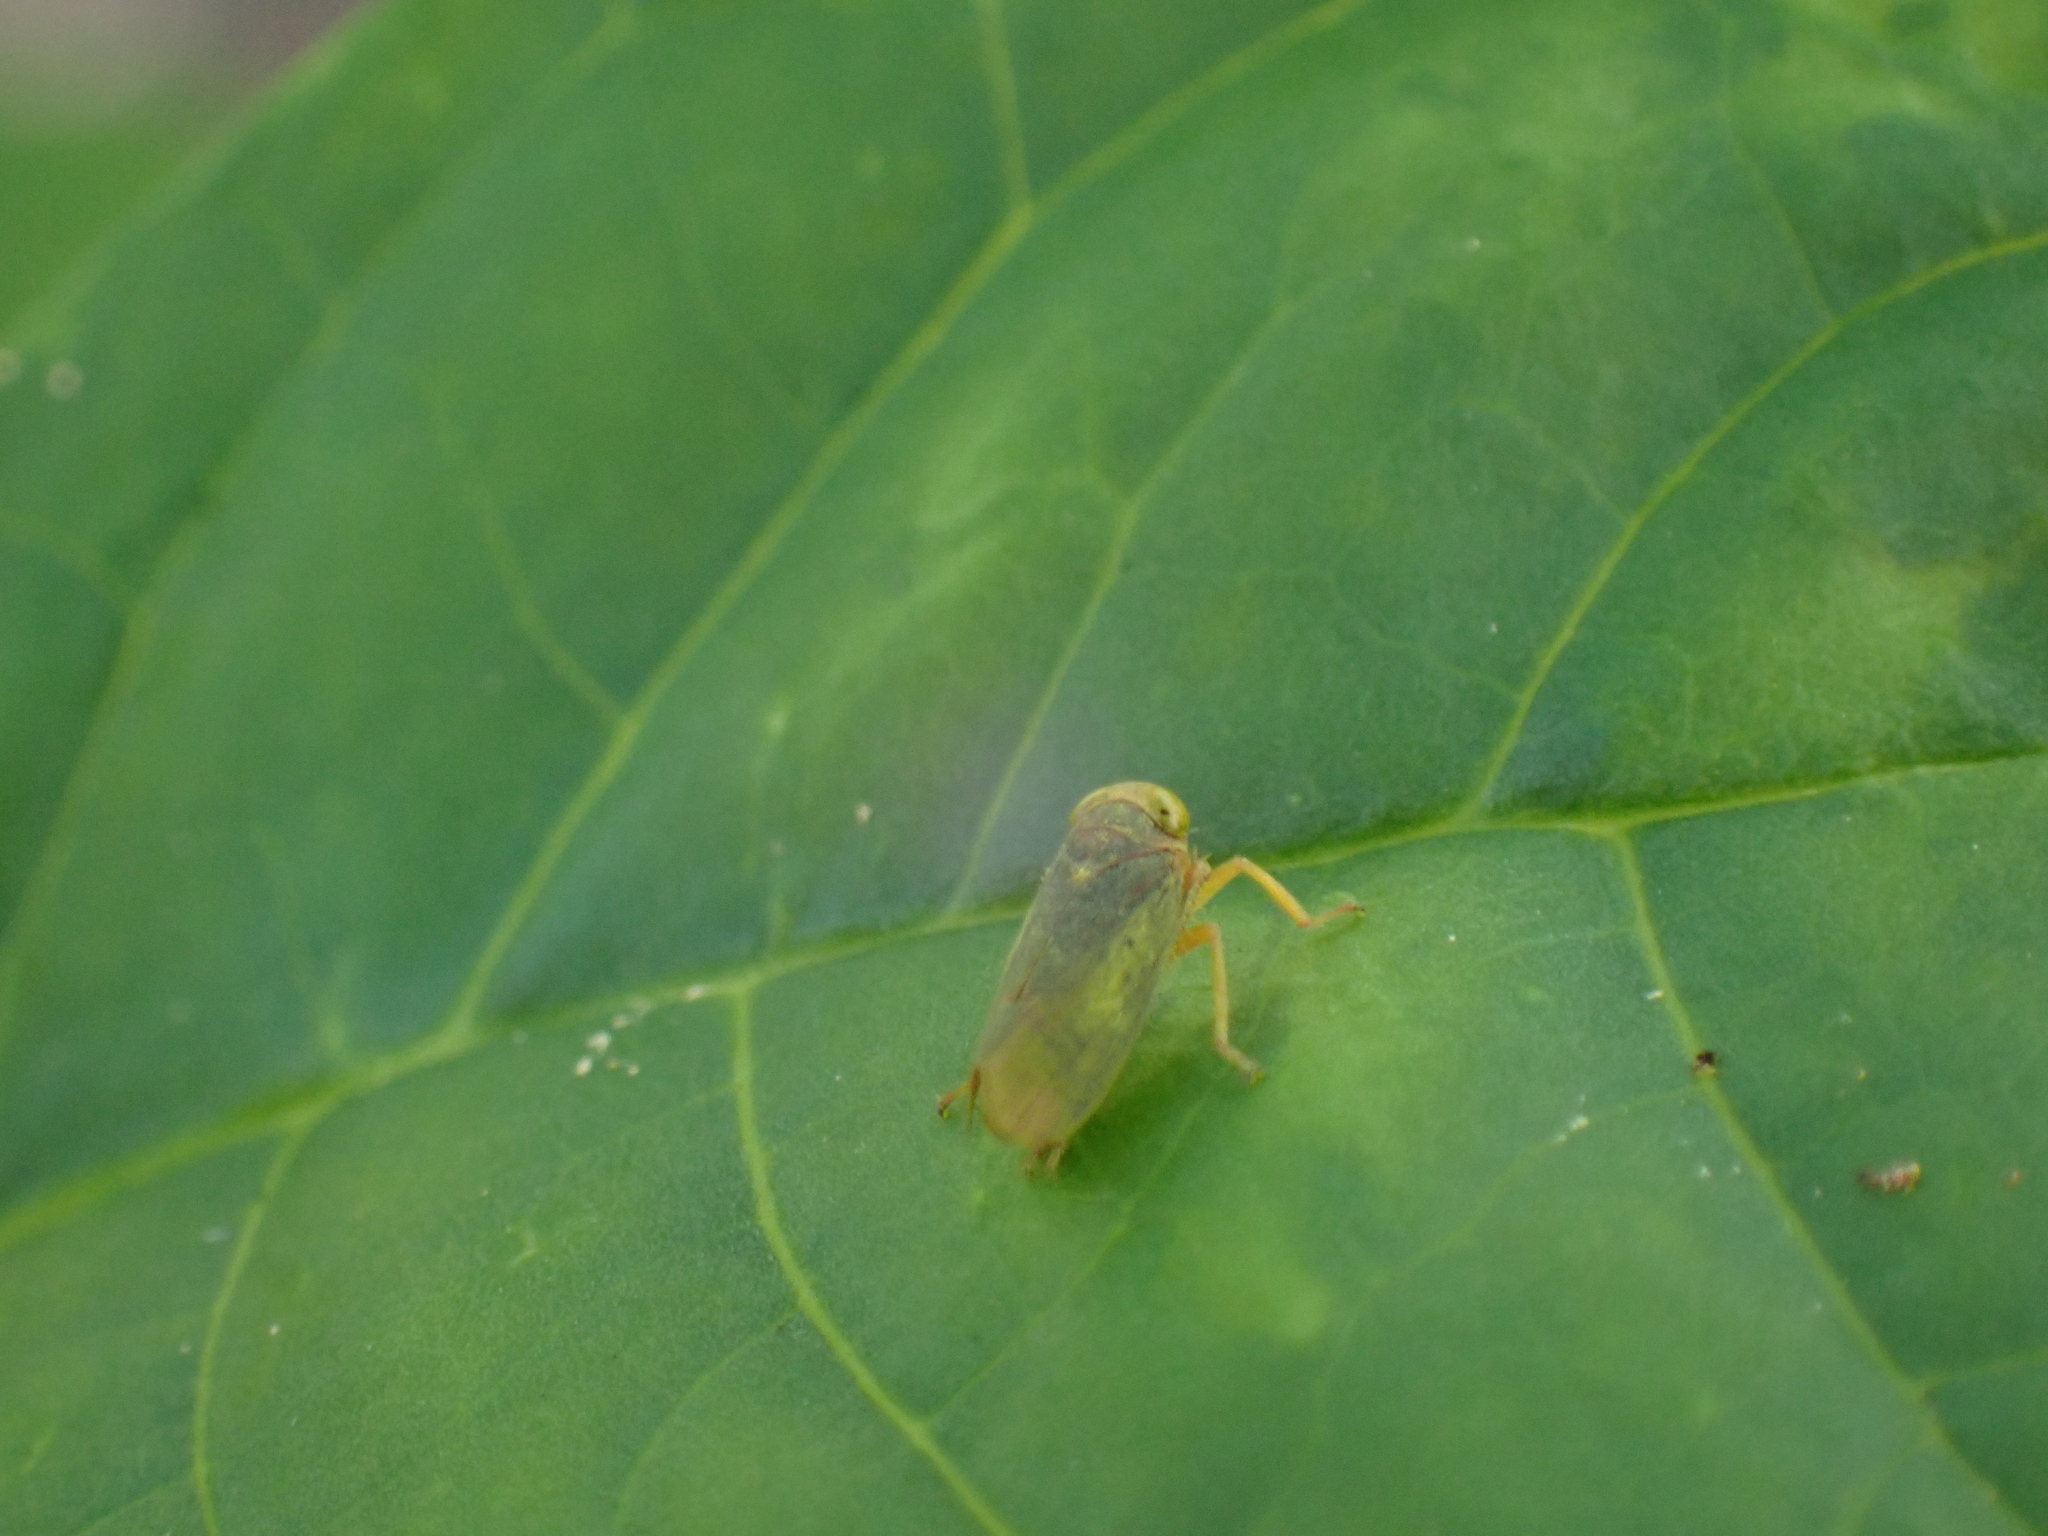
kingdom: Animalia
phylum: Arthropoda
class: Insecta
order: Hemiptera
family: Cicadellidae
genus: Jikradia
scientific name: Jikradia olitoria
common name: Coppery leafhopper
